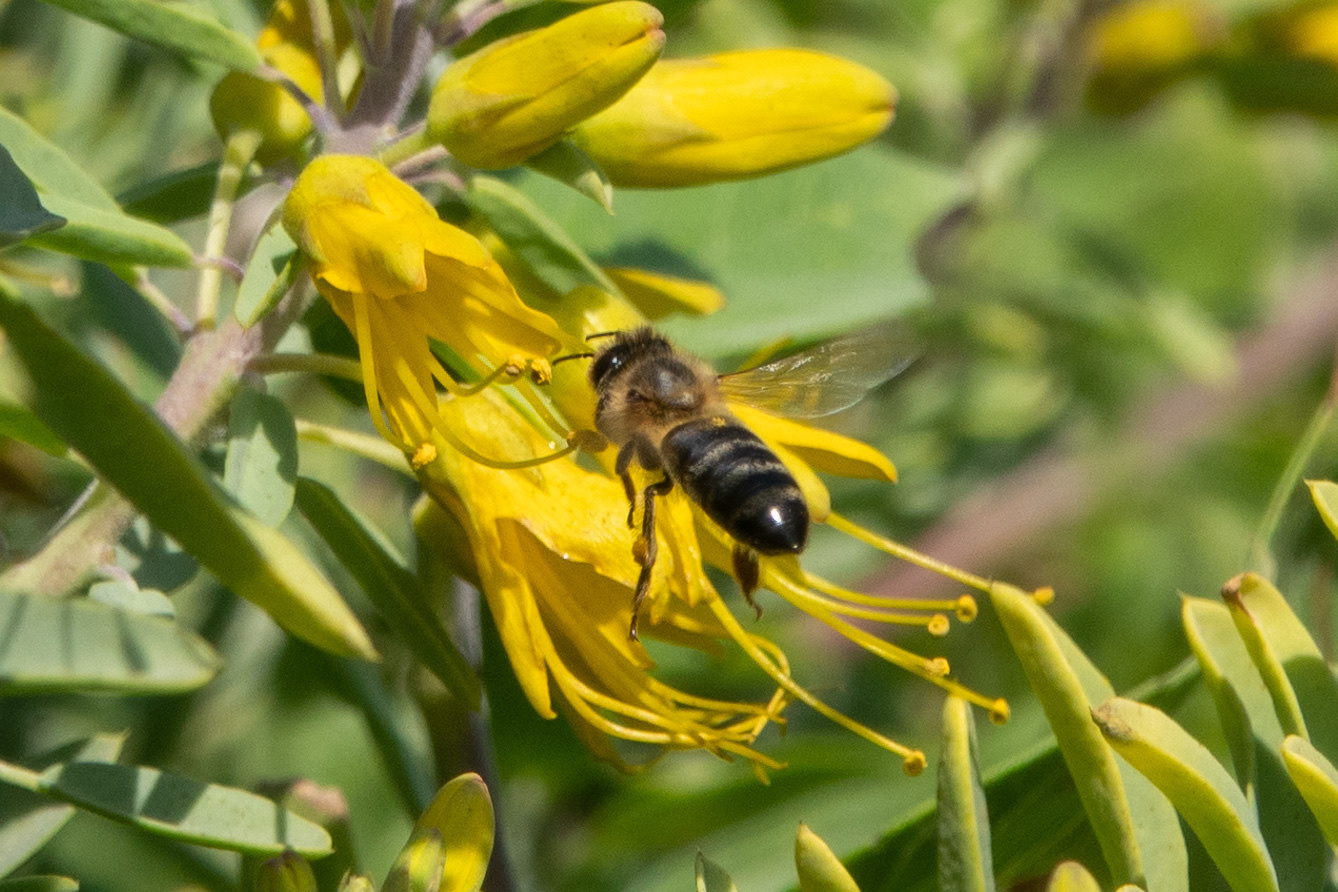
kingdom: Animalia
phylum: Arthropoda
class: Insecta
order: Hymenoptera
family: Apidae
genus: Apis
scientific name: Apis mellifera
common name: Honey bee
